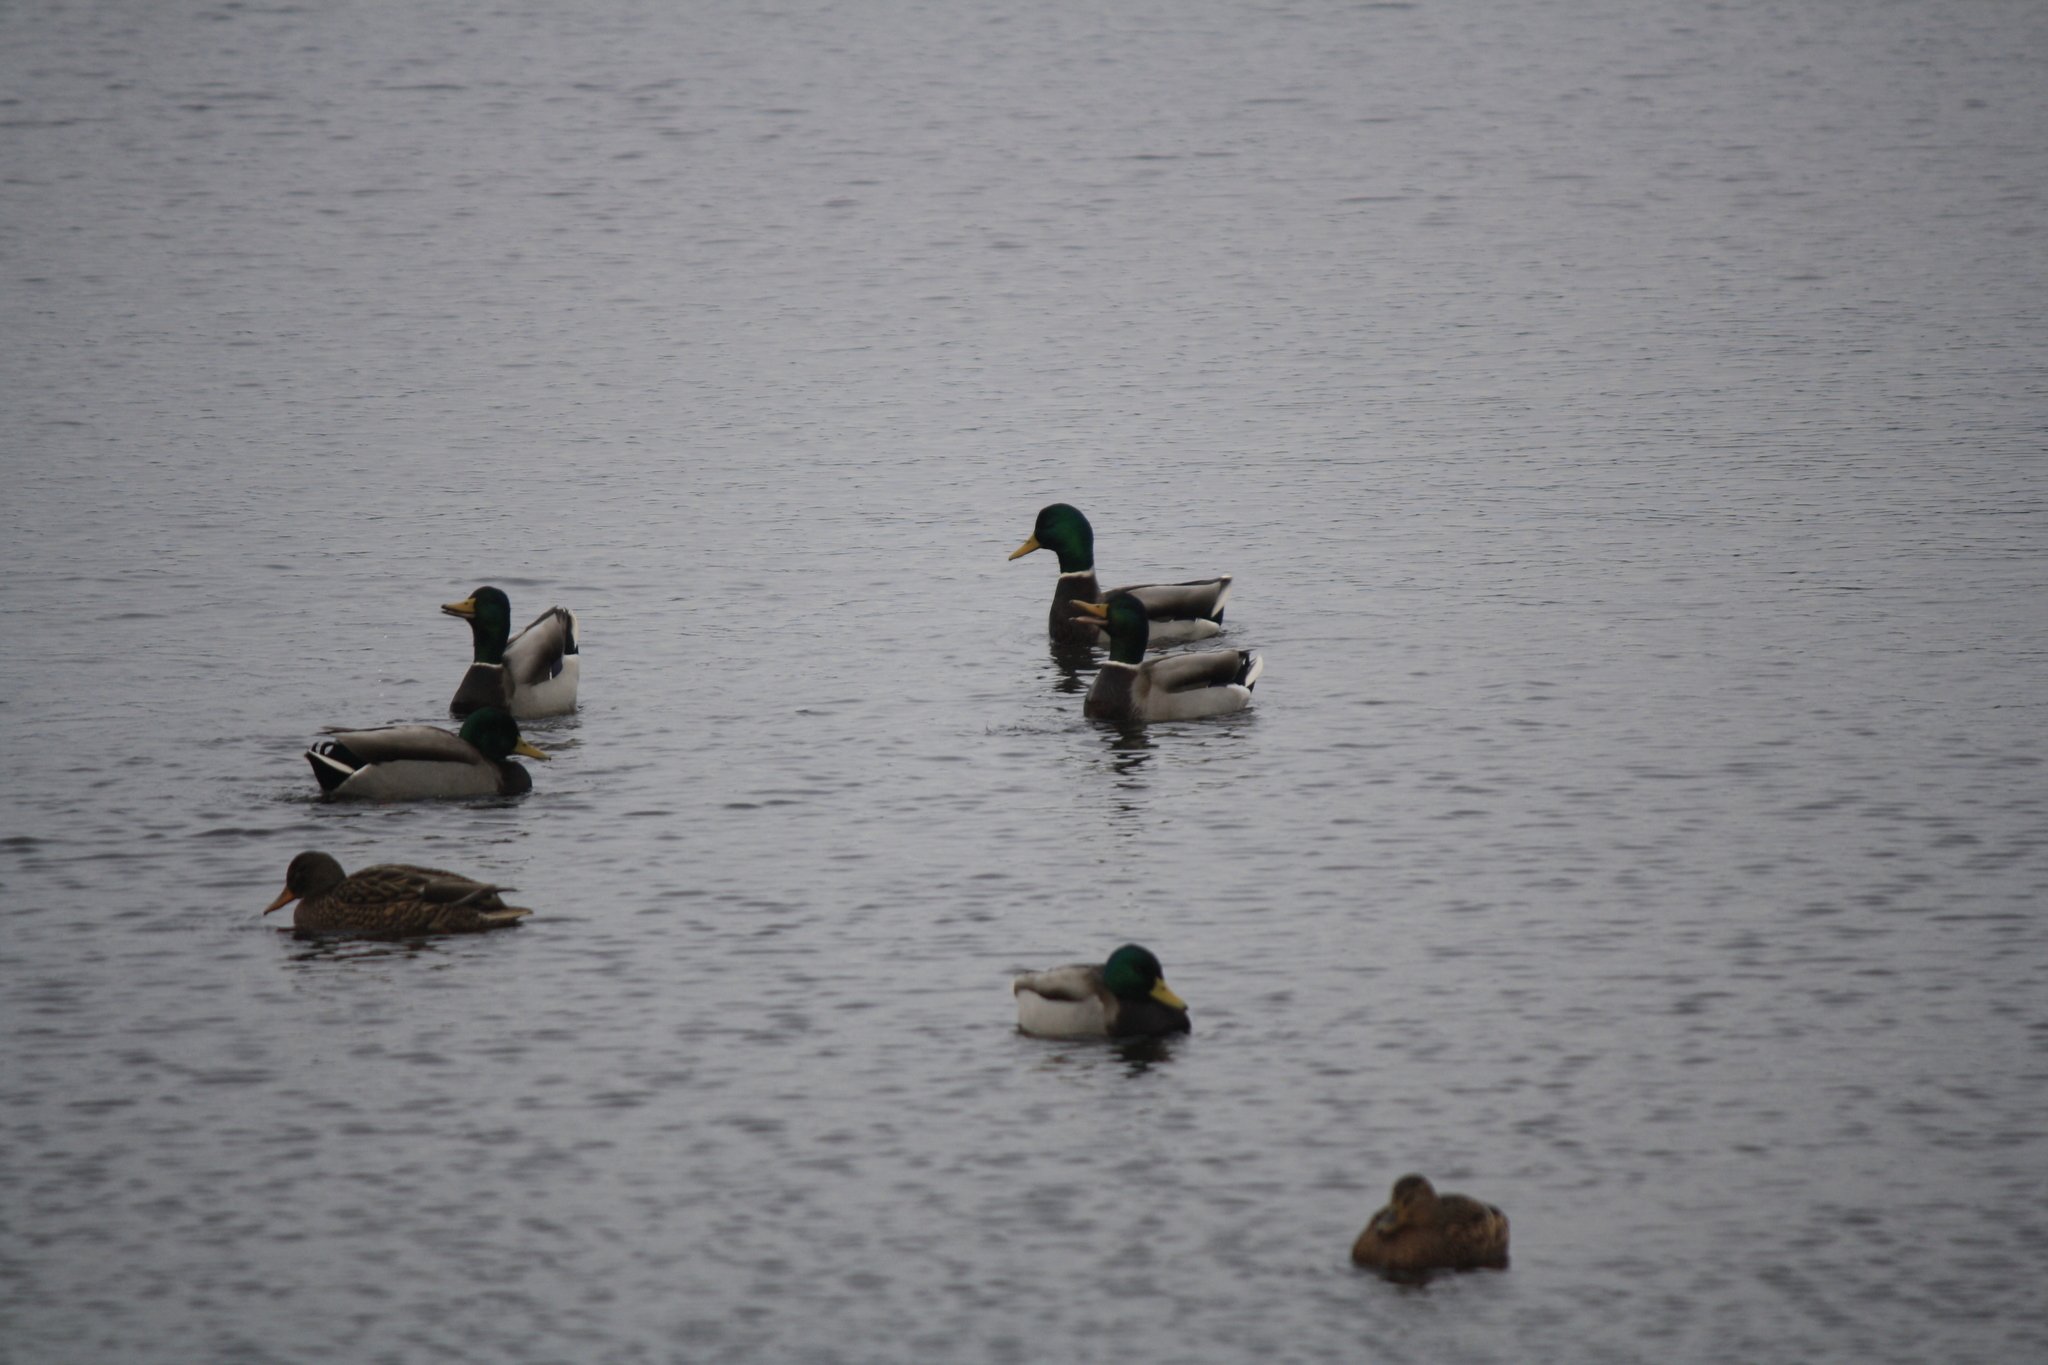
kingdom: Animalia
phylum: Chordata
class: Aves
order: Anseriformes
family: Anatidae
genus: Anas
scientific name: Anas platyrhynchos
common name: Mallard
